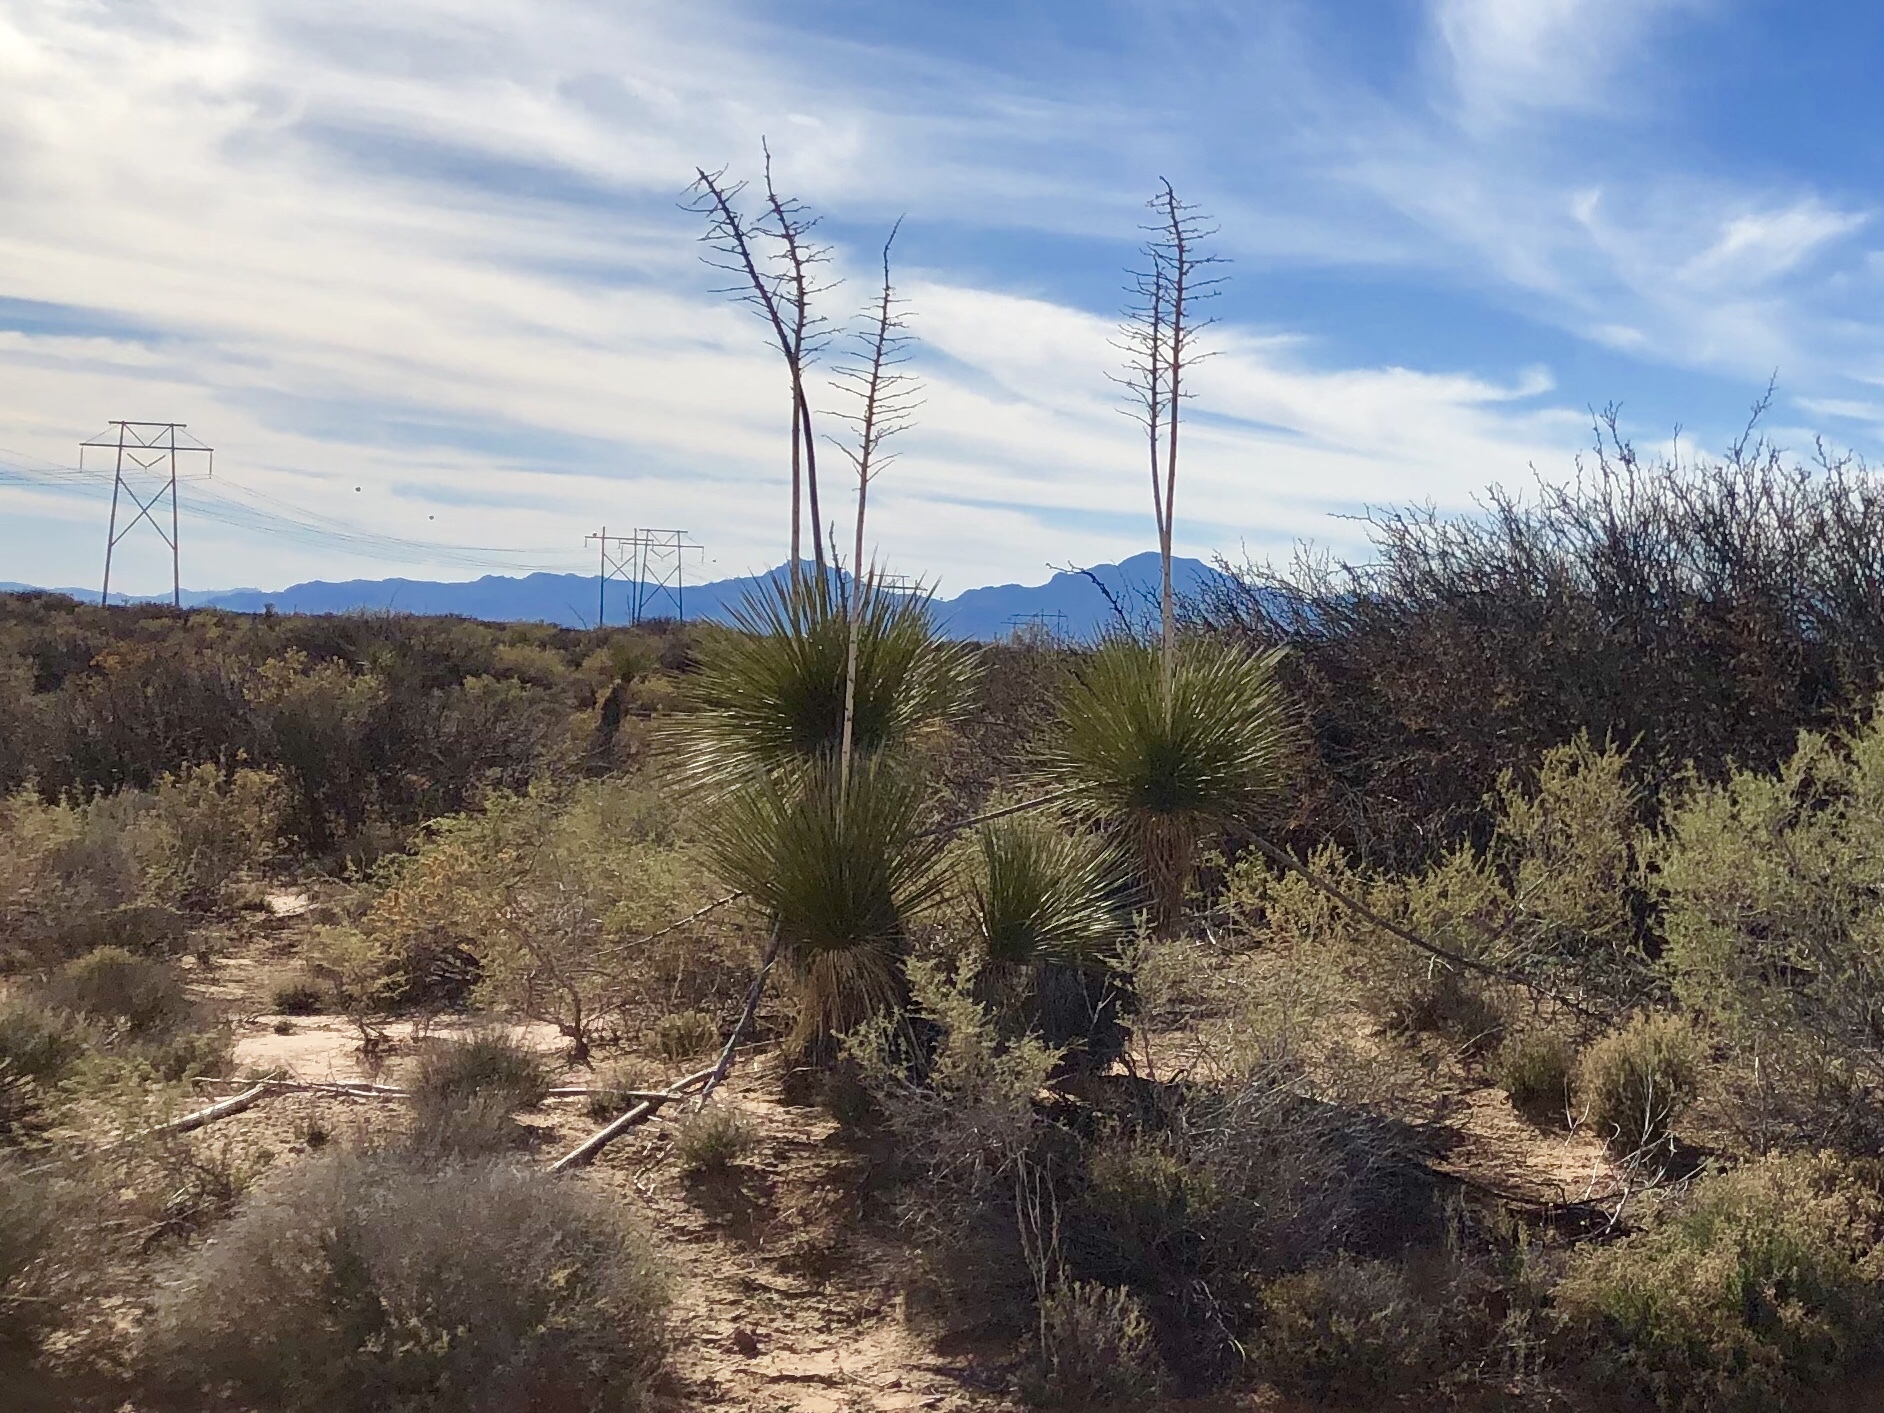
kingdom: Plantae
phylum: Tracheophyta
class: Liliopsida
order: Asparagales
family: Asparagaceae
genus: Yucca
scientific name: Yucca elata
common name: Palmella
